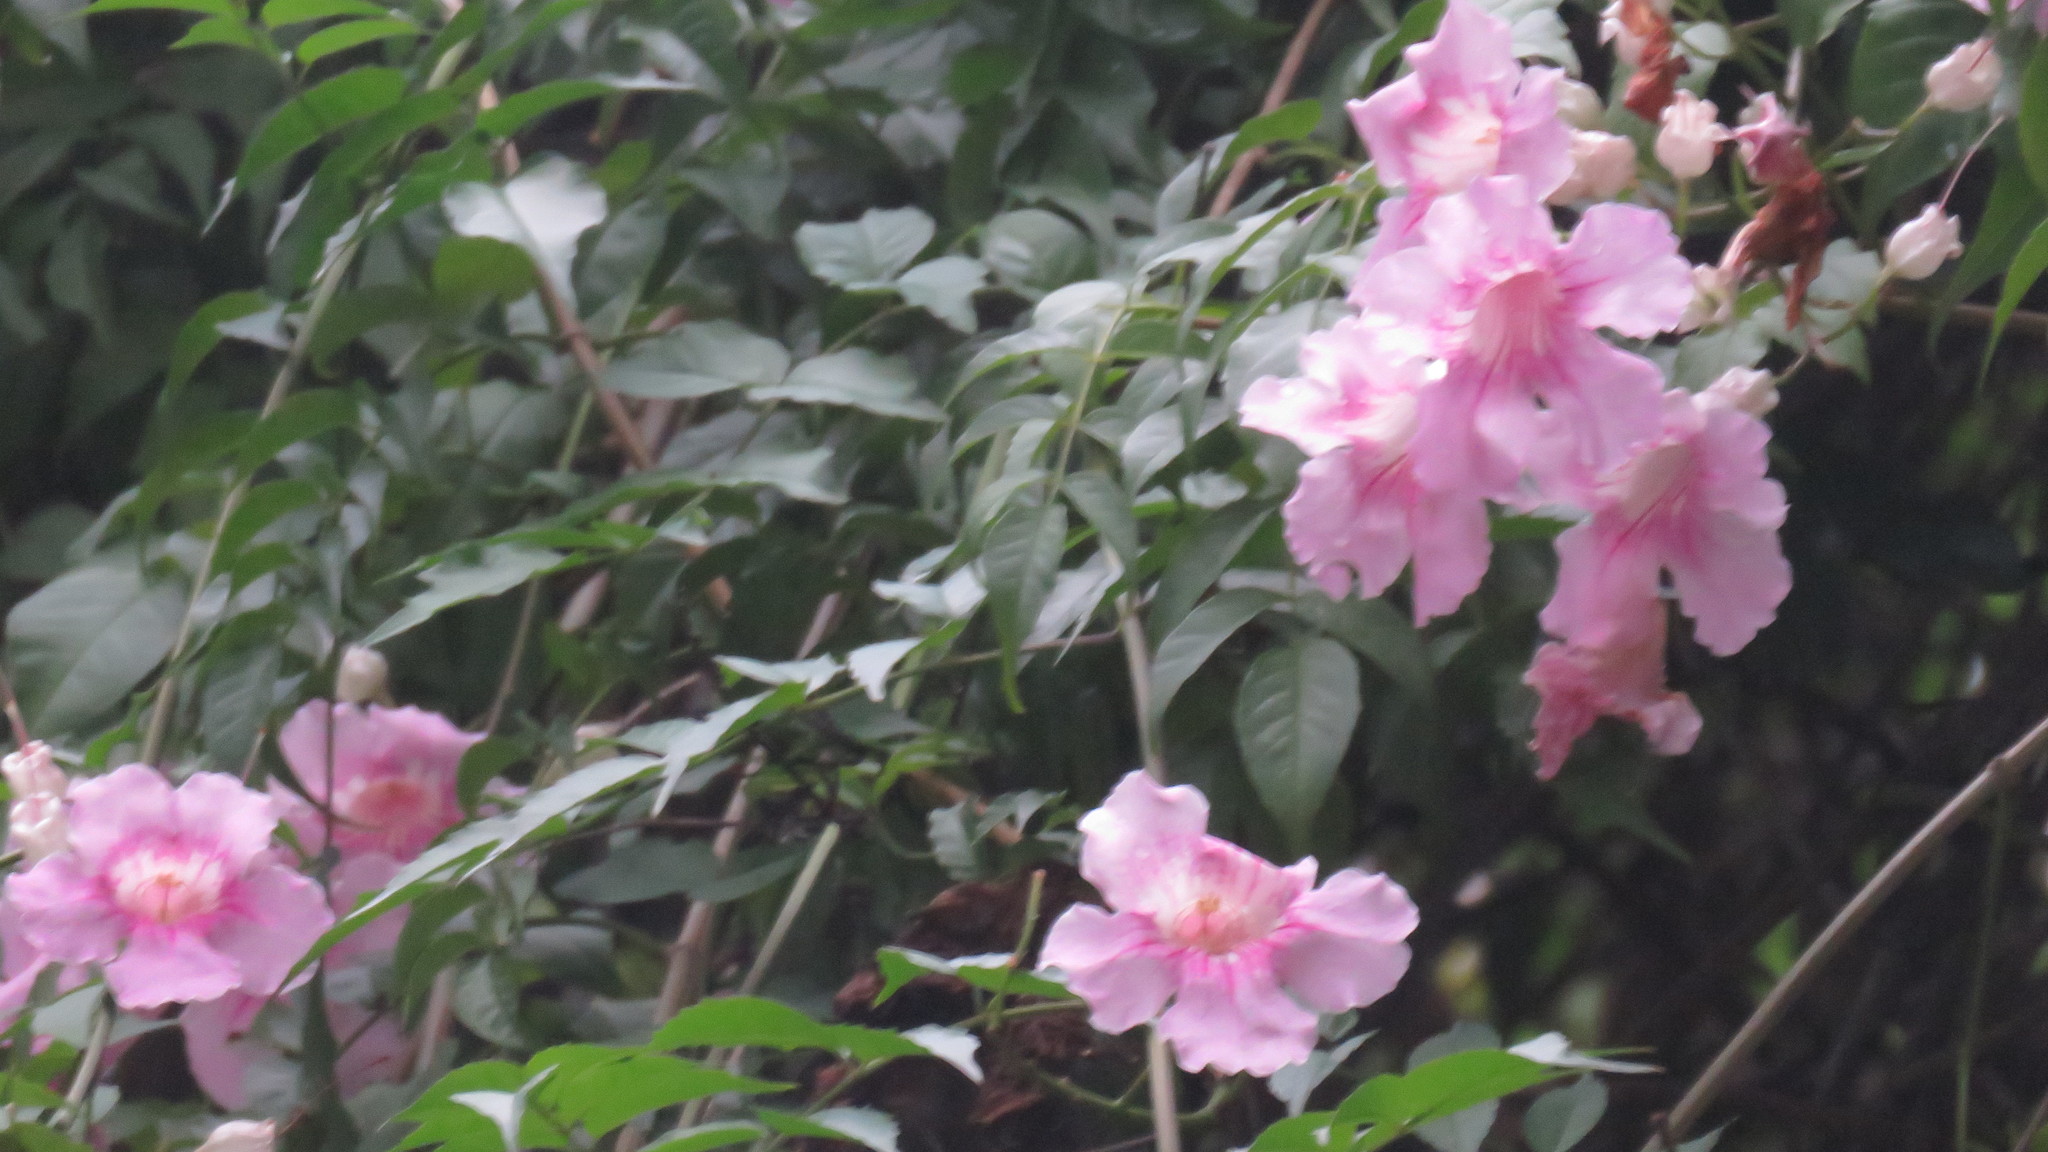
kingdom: Plantae
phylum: Tracheophyta
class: Magnoliopsida
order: Lamiales
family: Bignoniaceae
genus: Podranea
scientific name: Podranea ricasoliana
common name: Zimbabwe creeper
